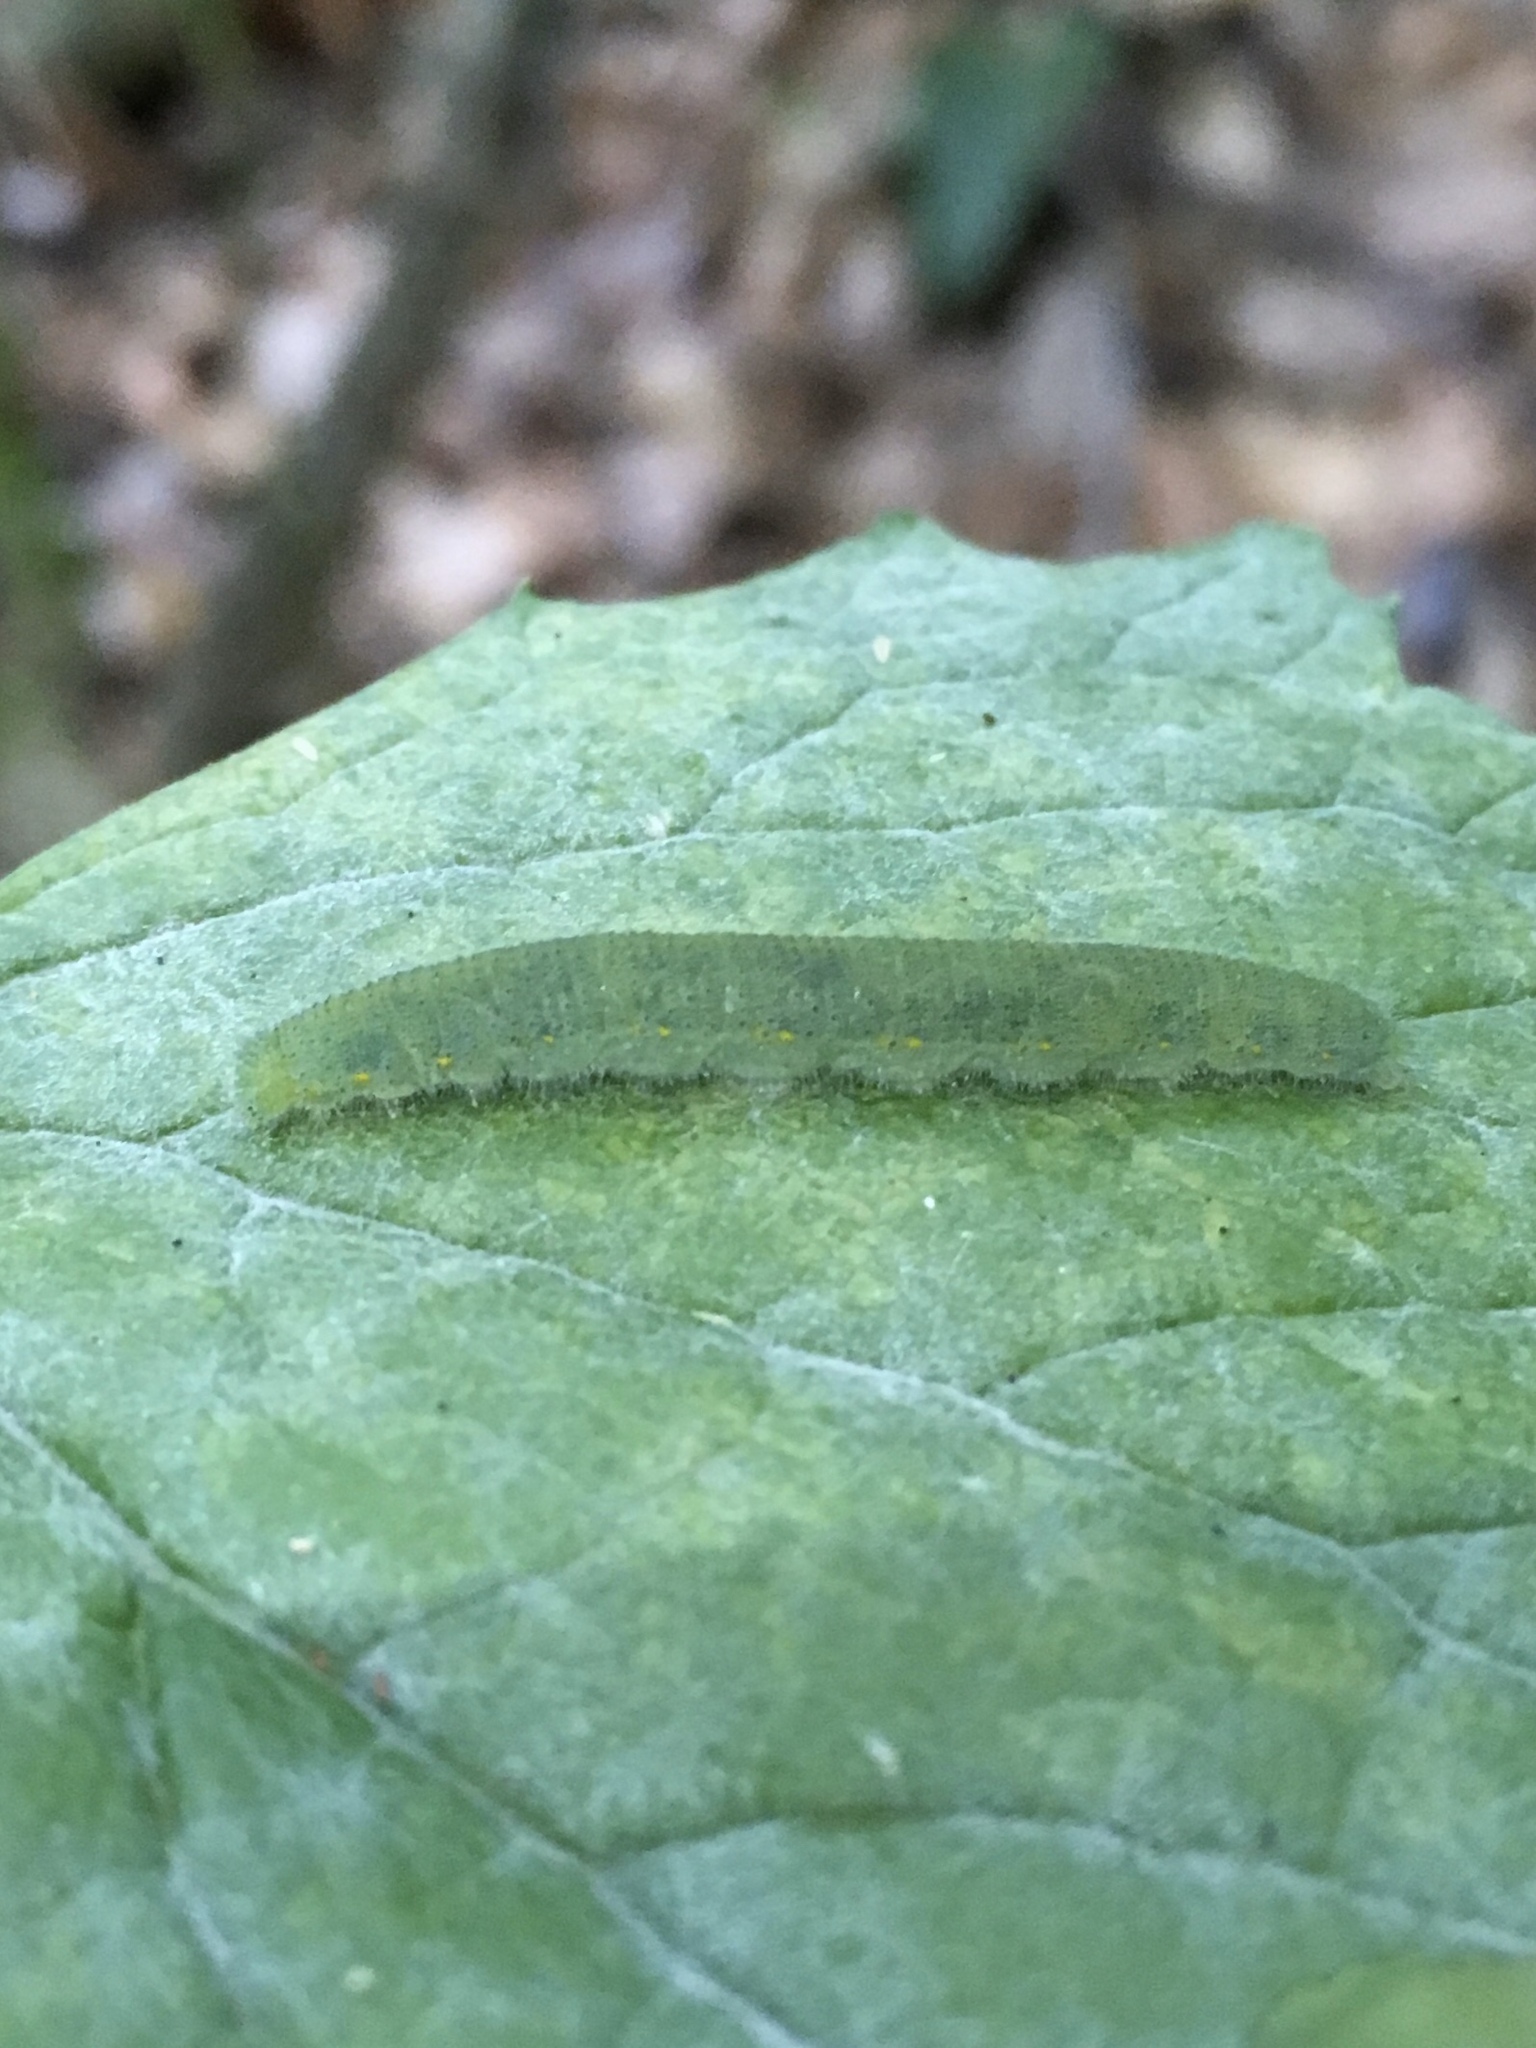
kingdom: Animalia
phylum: Arthropoda
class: Insecta
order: Lepidoptera
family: Pieridae
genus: Pieris
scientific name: Pieris rapae
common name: Small white
